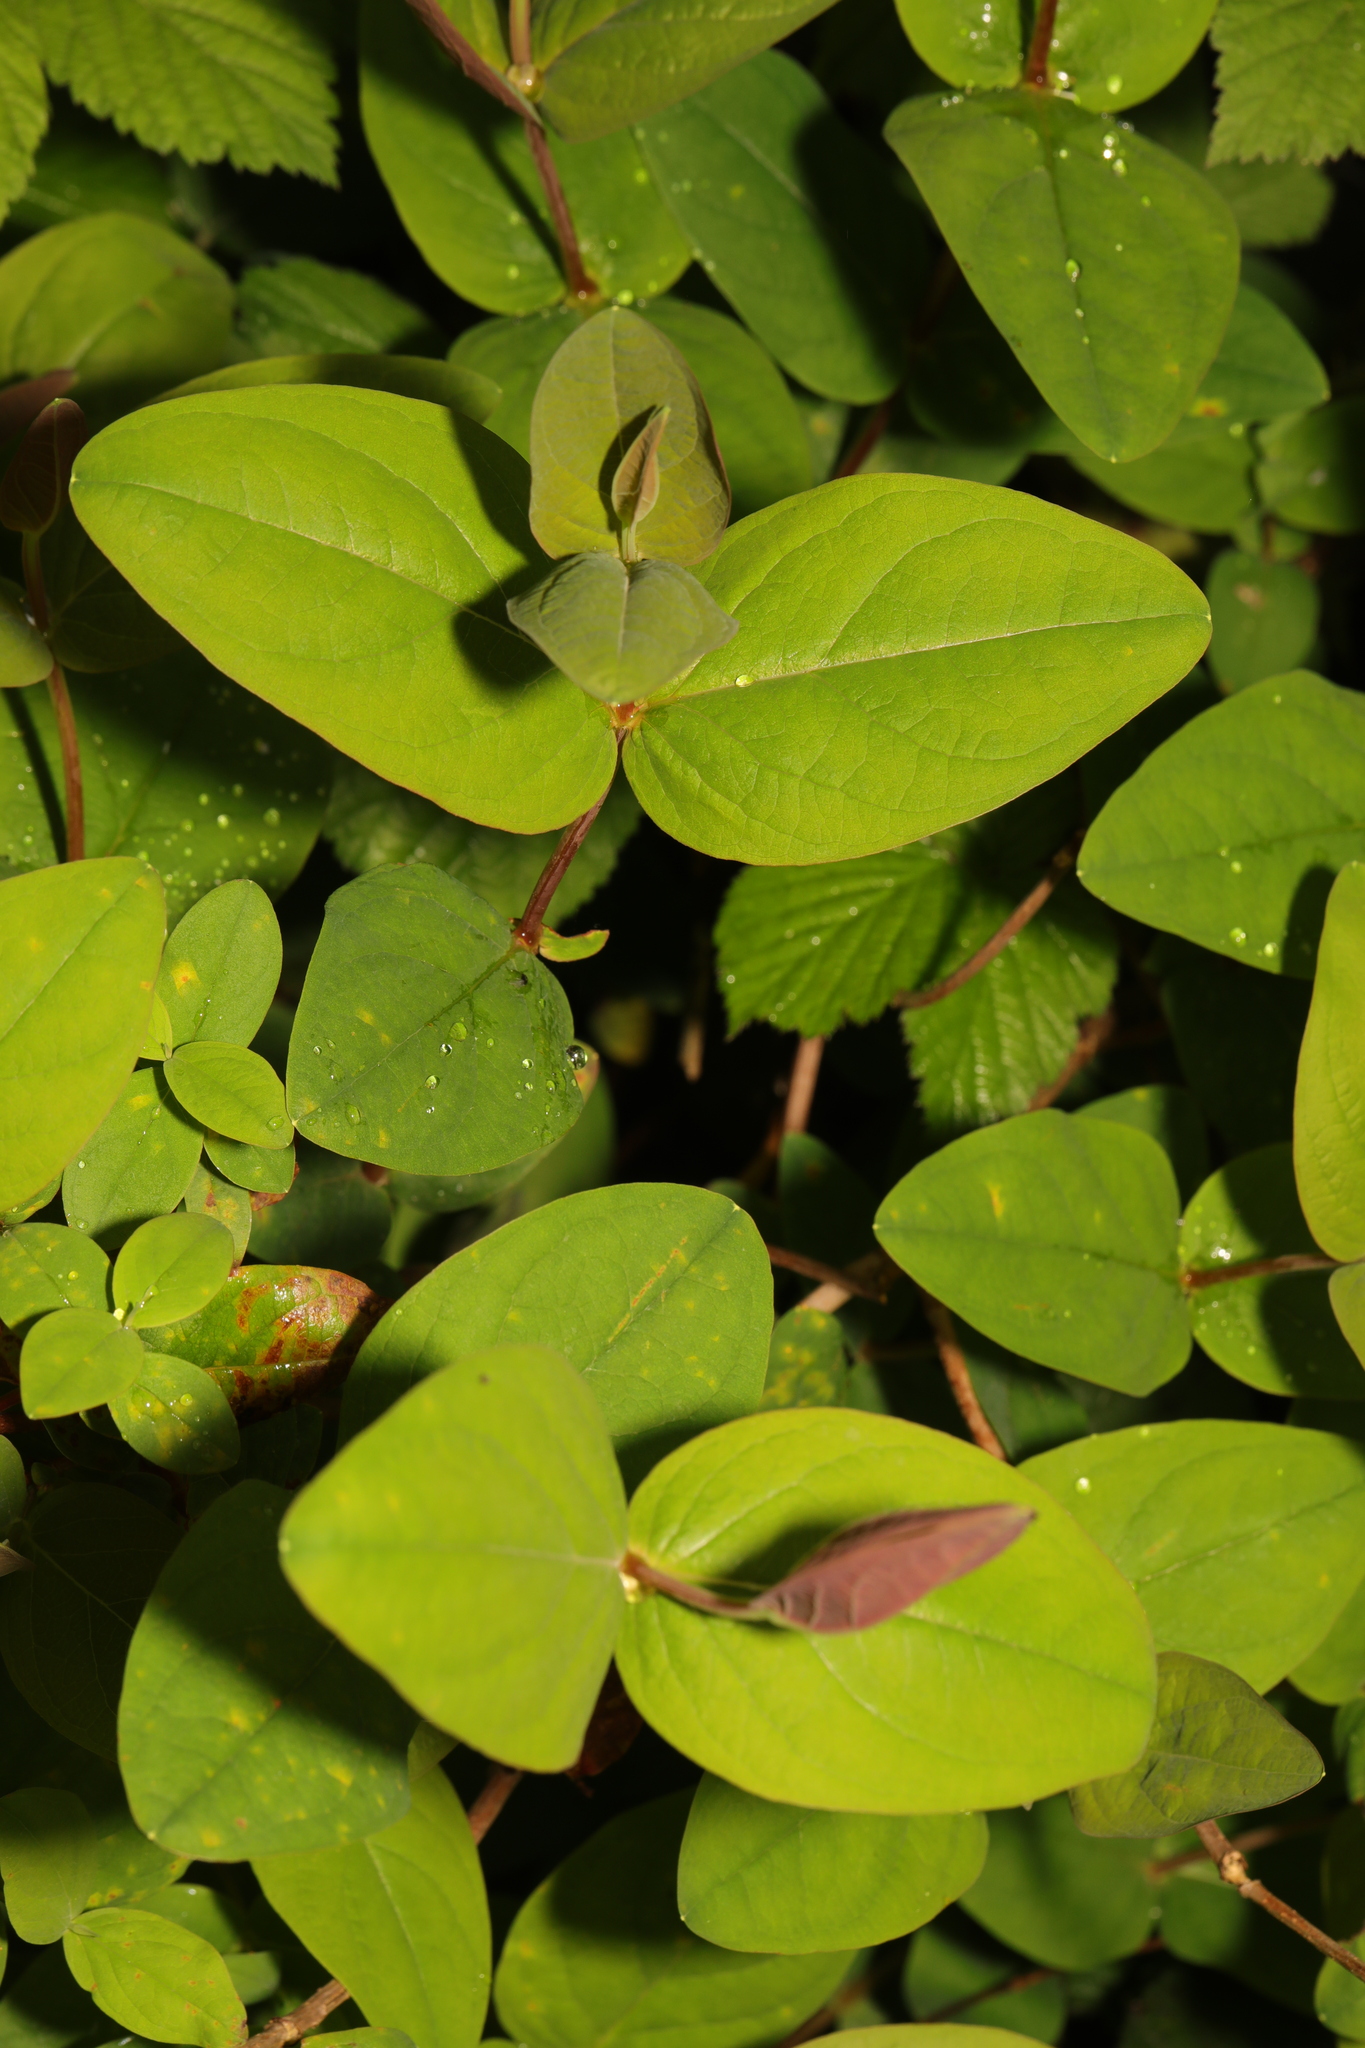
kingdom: Plantae
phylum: Tracheophyta
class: Magnoliopsida
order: Malpighiales
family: Hypericaceae
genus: Hypericum
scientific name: Hypericum androsaemum
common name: Sweet-amber
